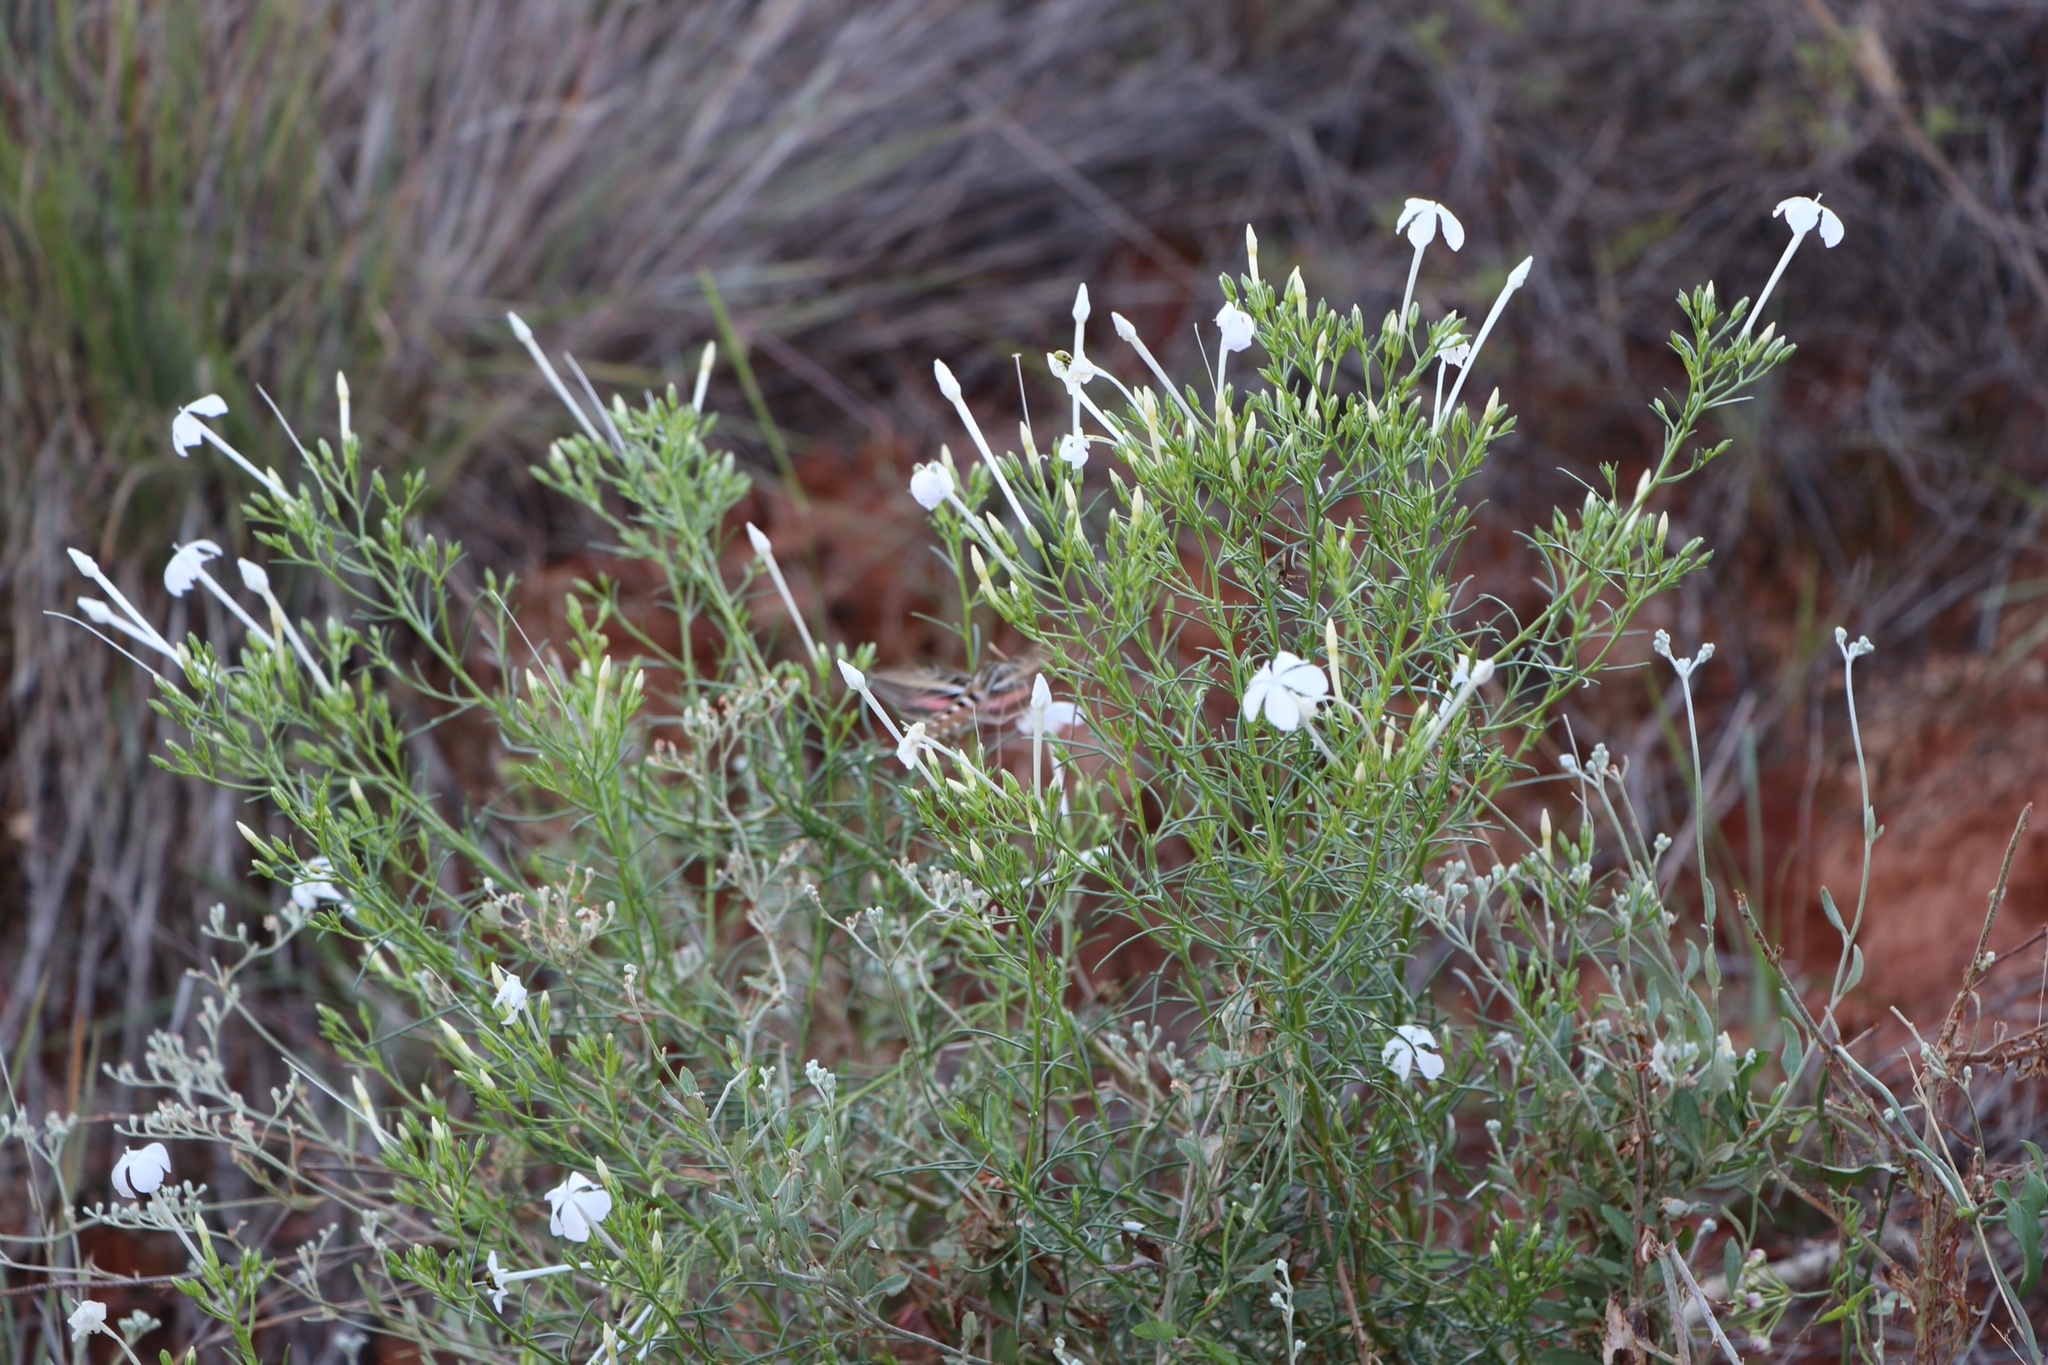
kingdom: Plantae
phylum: Tracheophyta
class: Magnoliopsida
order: Ericales
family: Polemoniaceae
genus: Ipomopsis
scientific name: Ipomopsis longiflora
